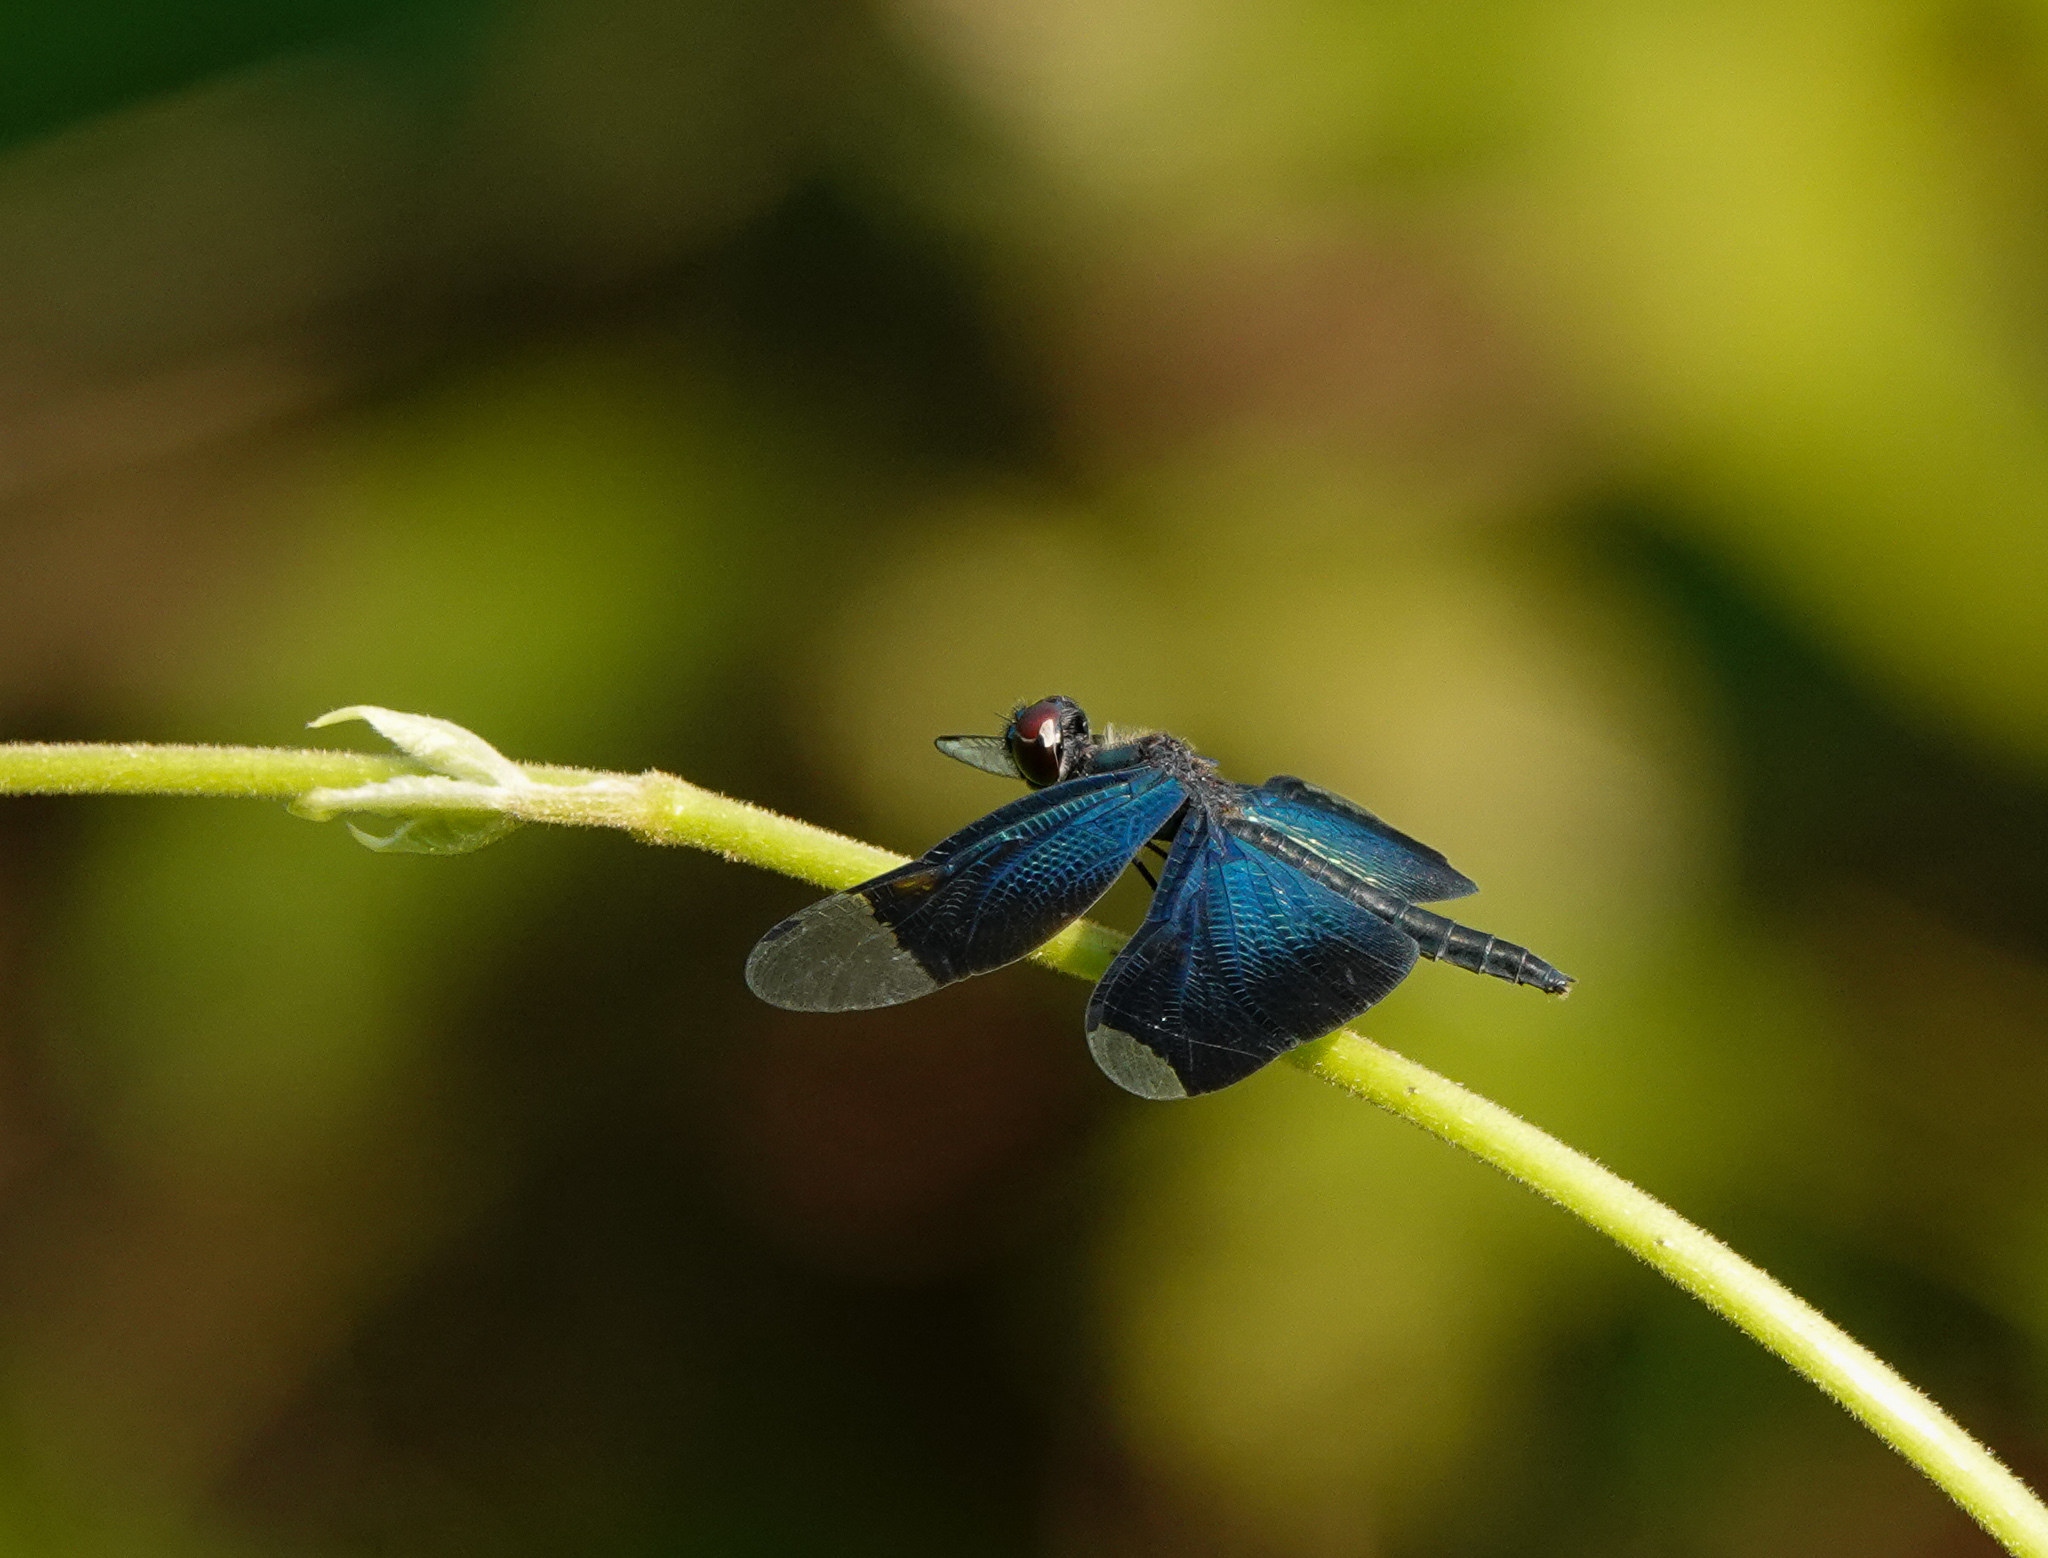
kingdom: Animalia
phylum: Arthropoda
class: Insecta
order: Odonata
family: Libellulidae
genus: Rhyothemis
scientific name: Rhyothemis plutonia
